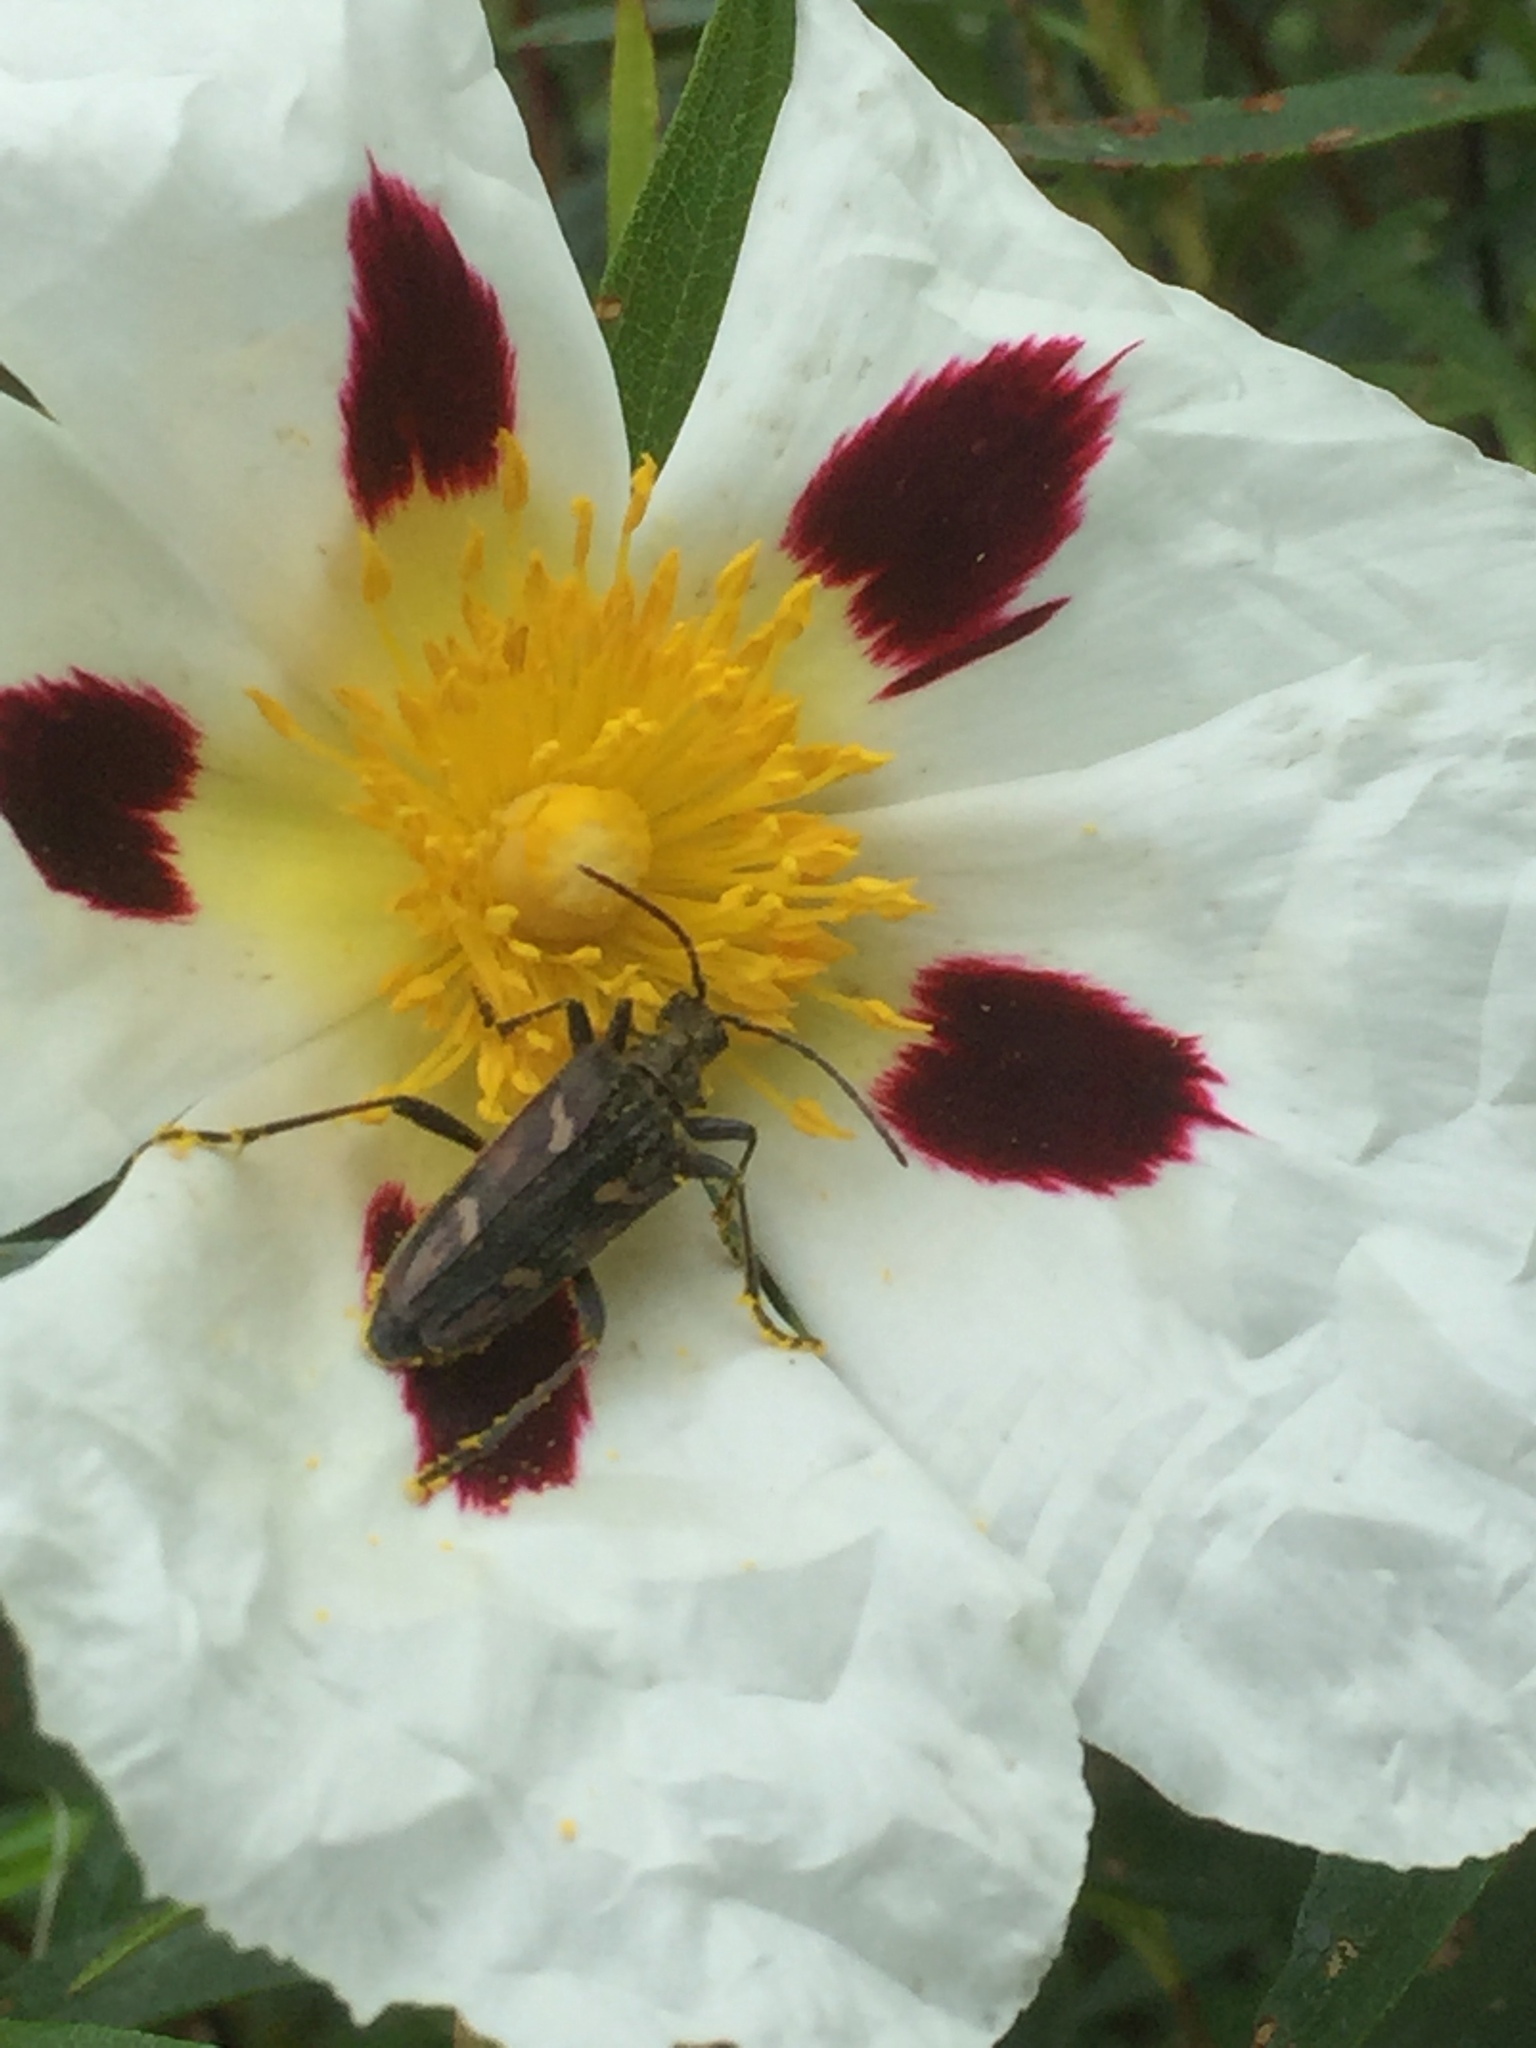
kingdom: Animalia
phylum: Arthropoda
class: Insecta
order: Coleoptera
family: Cerambycidae
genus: Rhagium
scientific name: Rhagium bifasciatum
